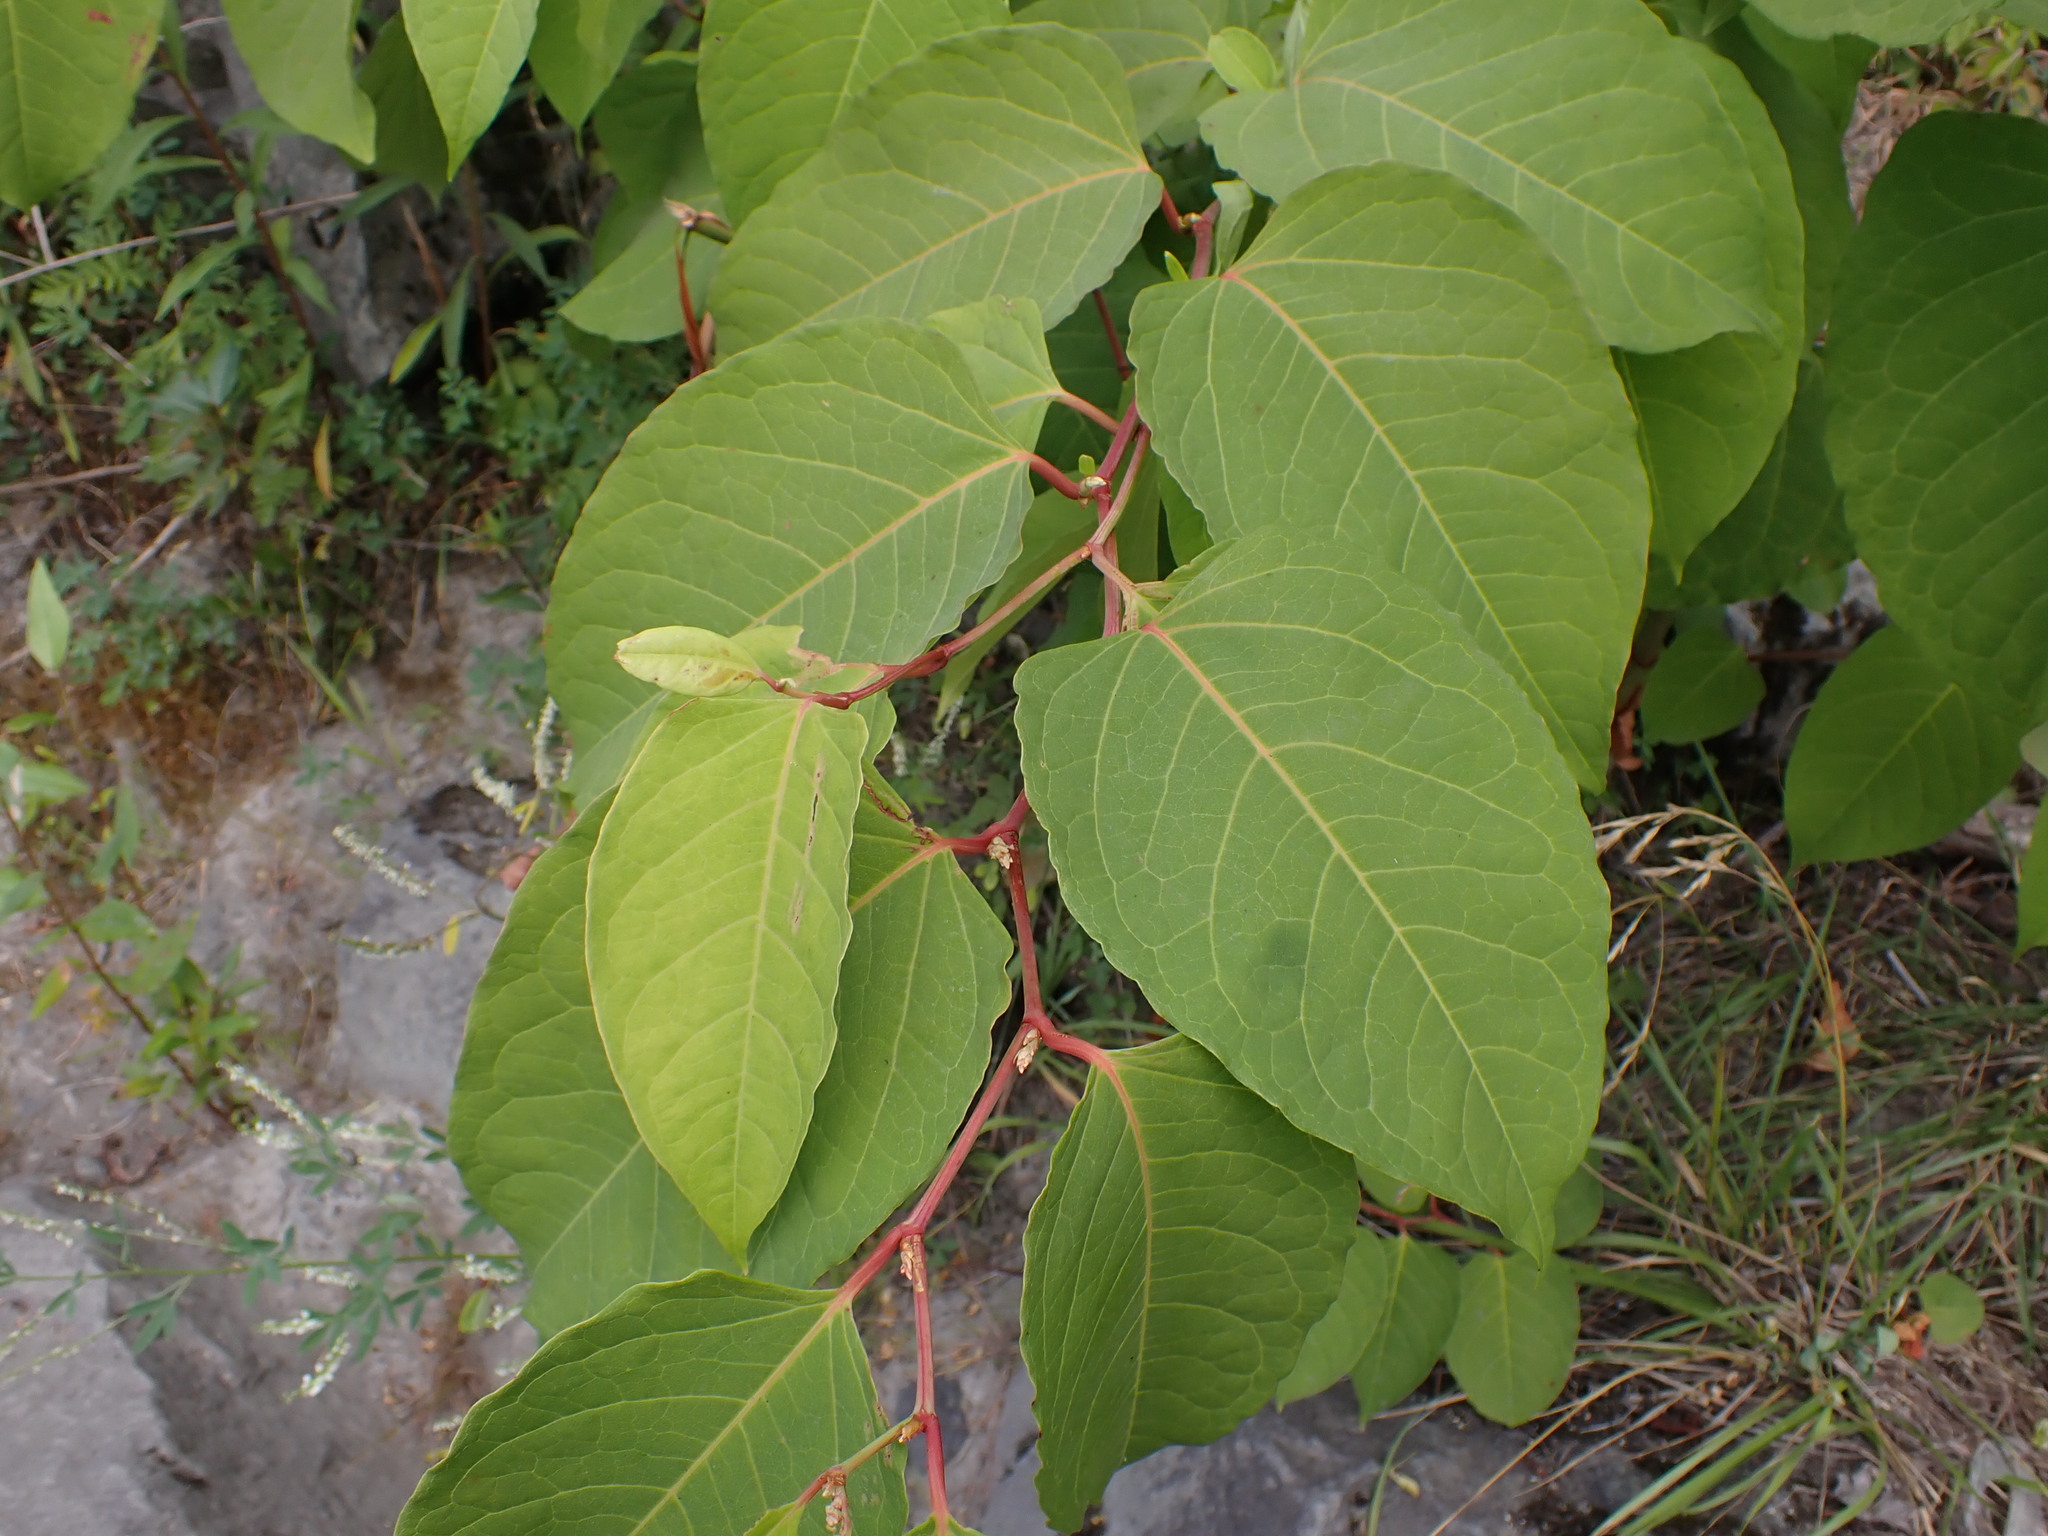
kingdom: Plantae
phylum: Tracheophyta
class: Magnoliopsida
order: Caryophyllales
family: Polygonaceae
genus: Reynoutria
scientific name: Reynoutria japonica
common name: Japanese knotweed
